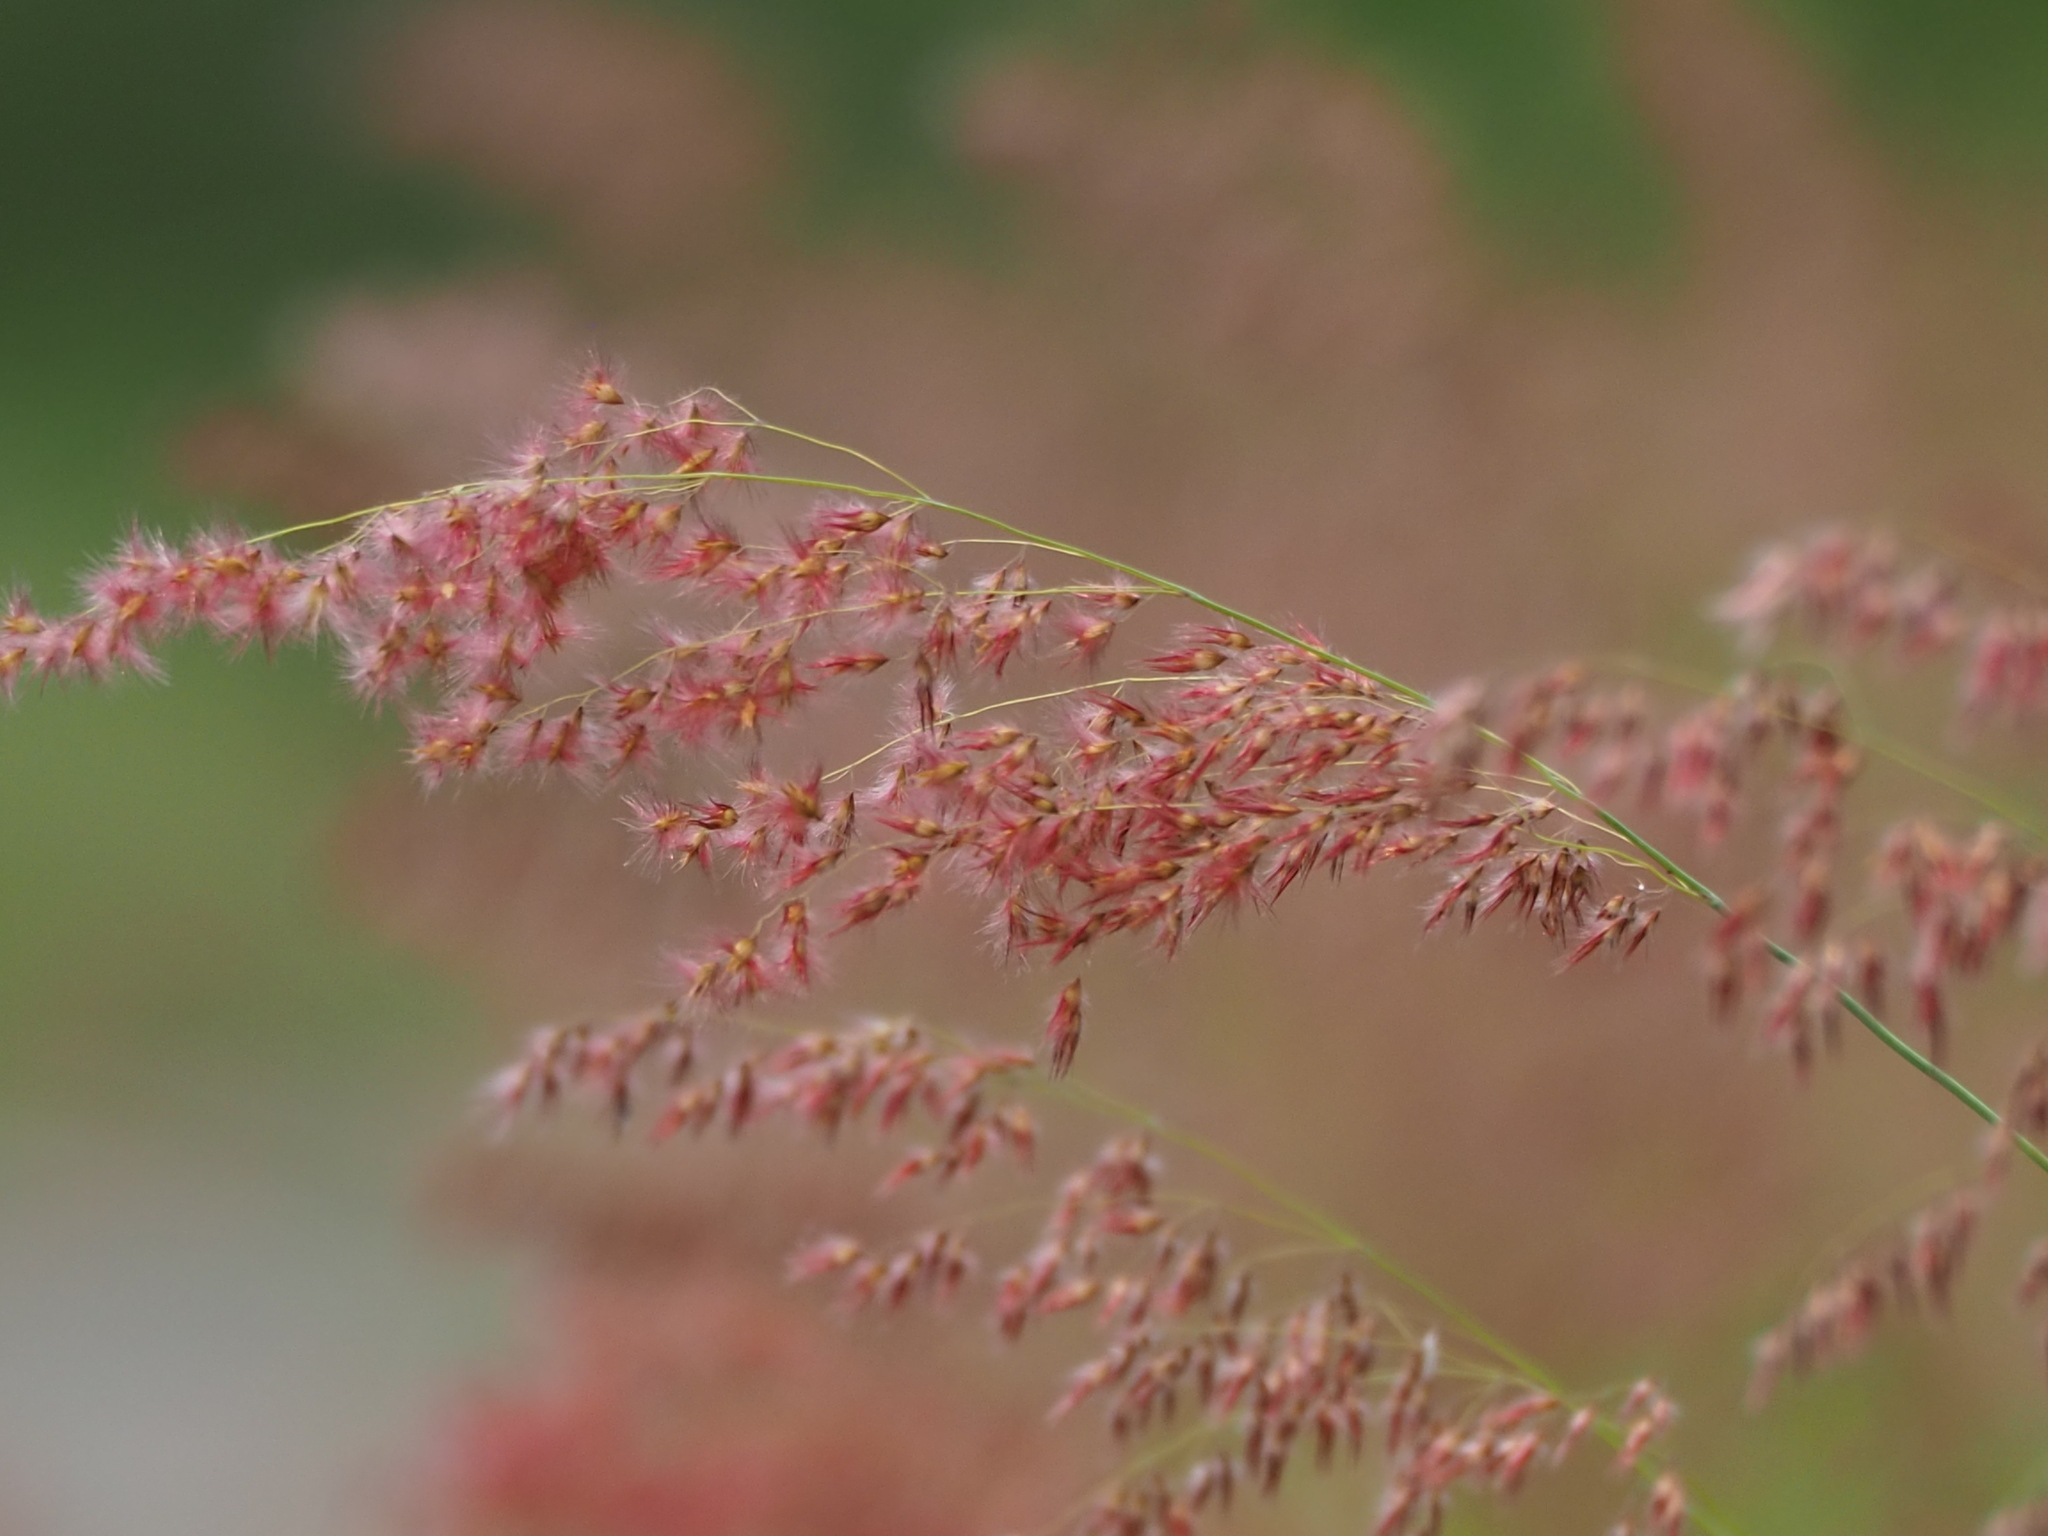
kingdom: Plantae
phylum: Tracheophyta
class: Liliopsida
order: Poales
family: Poaceae
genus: Melinis
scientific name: Melinis repens
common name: Rose natal grass
